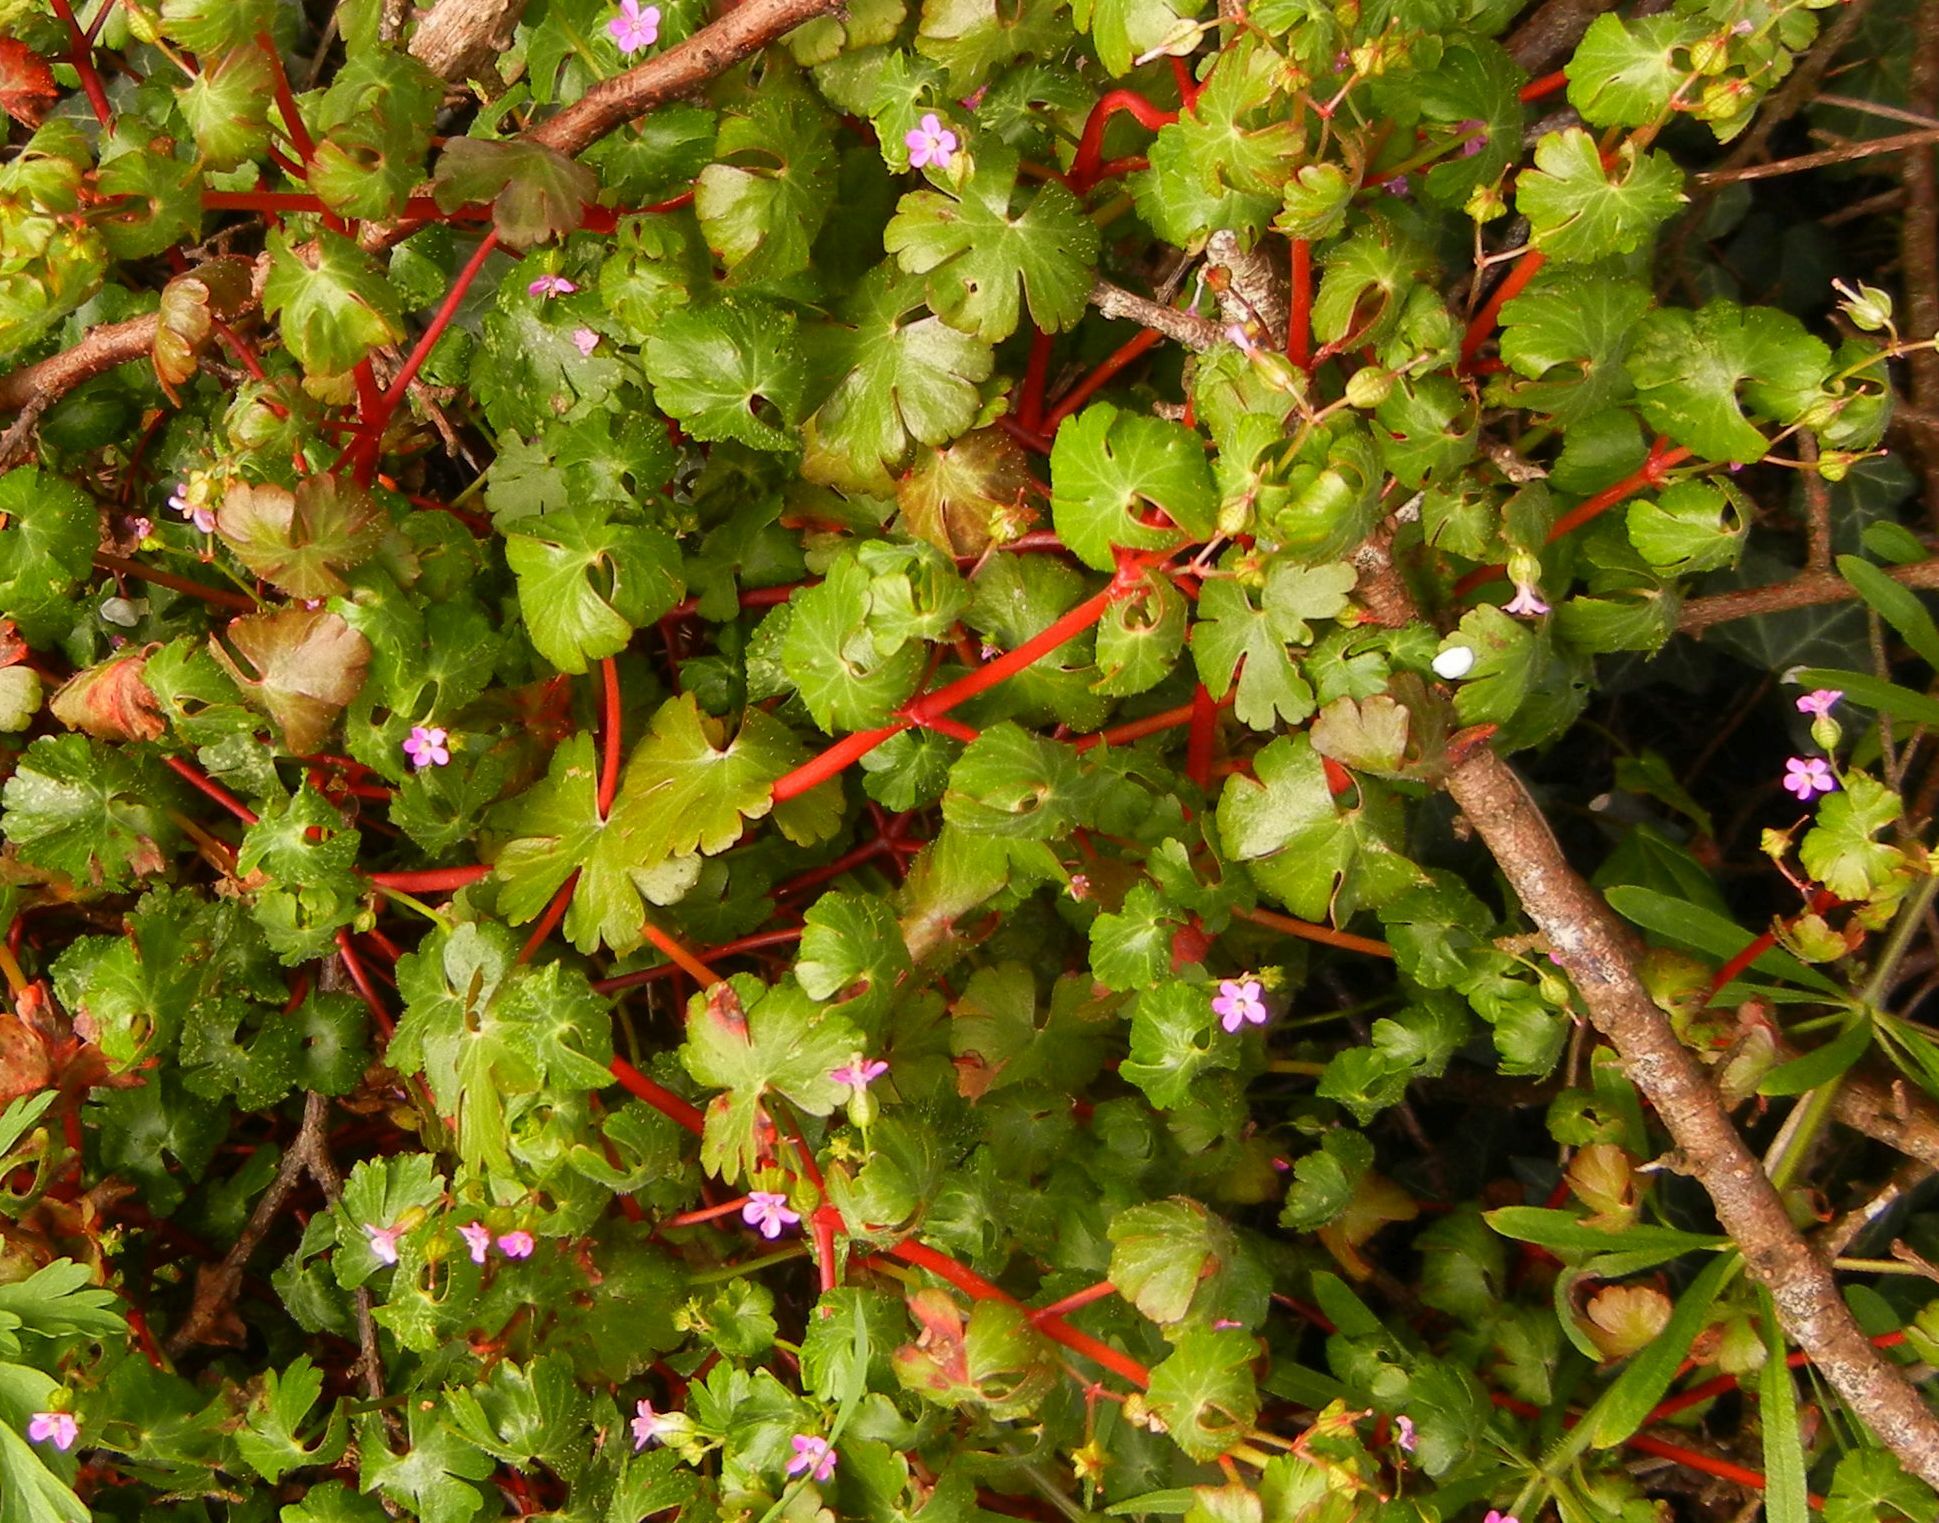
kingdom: Plantae
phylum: Tracheophyta
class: Magnoliopsida
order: Geraniales
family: Geraniaceae
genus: Geranium
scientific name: Geranium lucidum
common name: Shining crane's-bill
